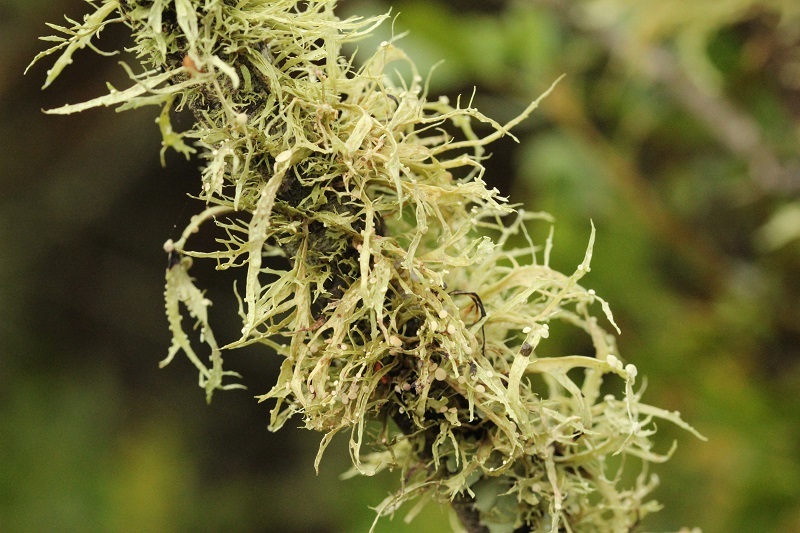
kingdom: Fungi
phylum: Ascomycota
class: Lecanoromycetes
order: Lecanorales
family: Ramalinaceae
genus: Ramalina
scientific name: Ramalina celastri
